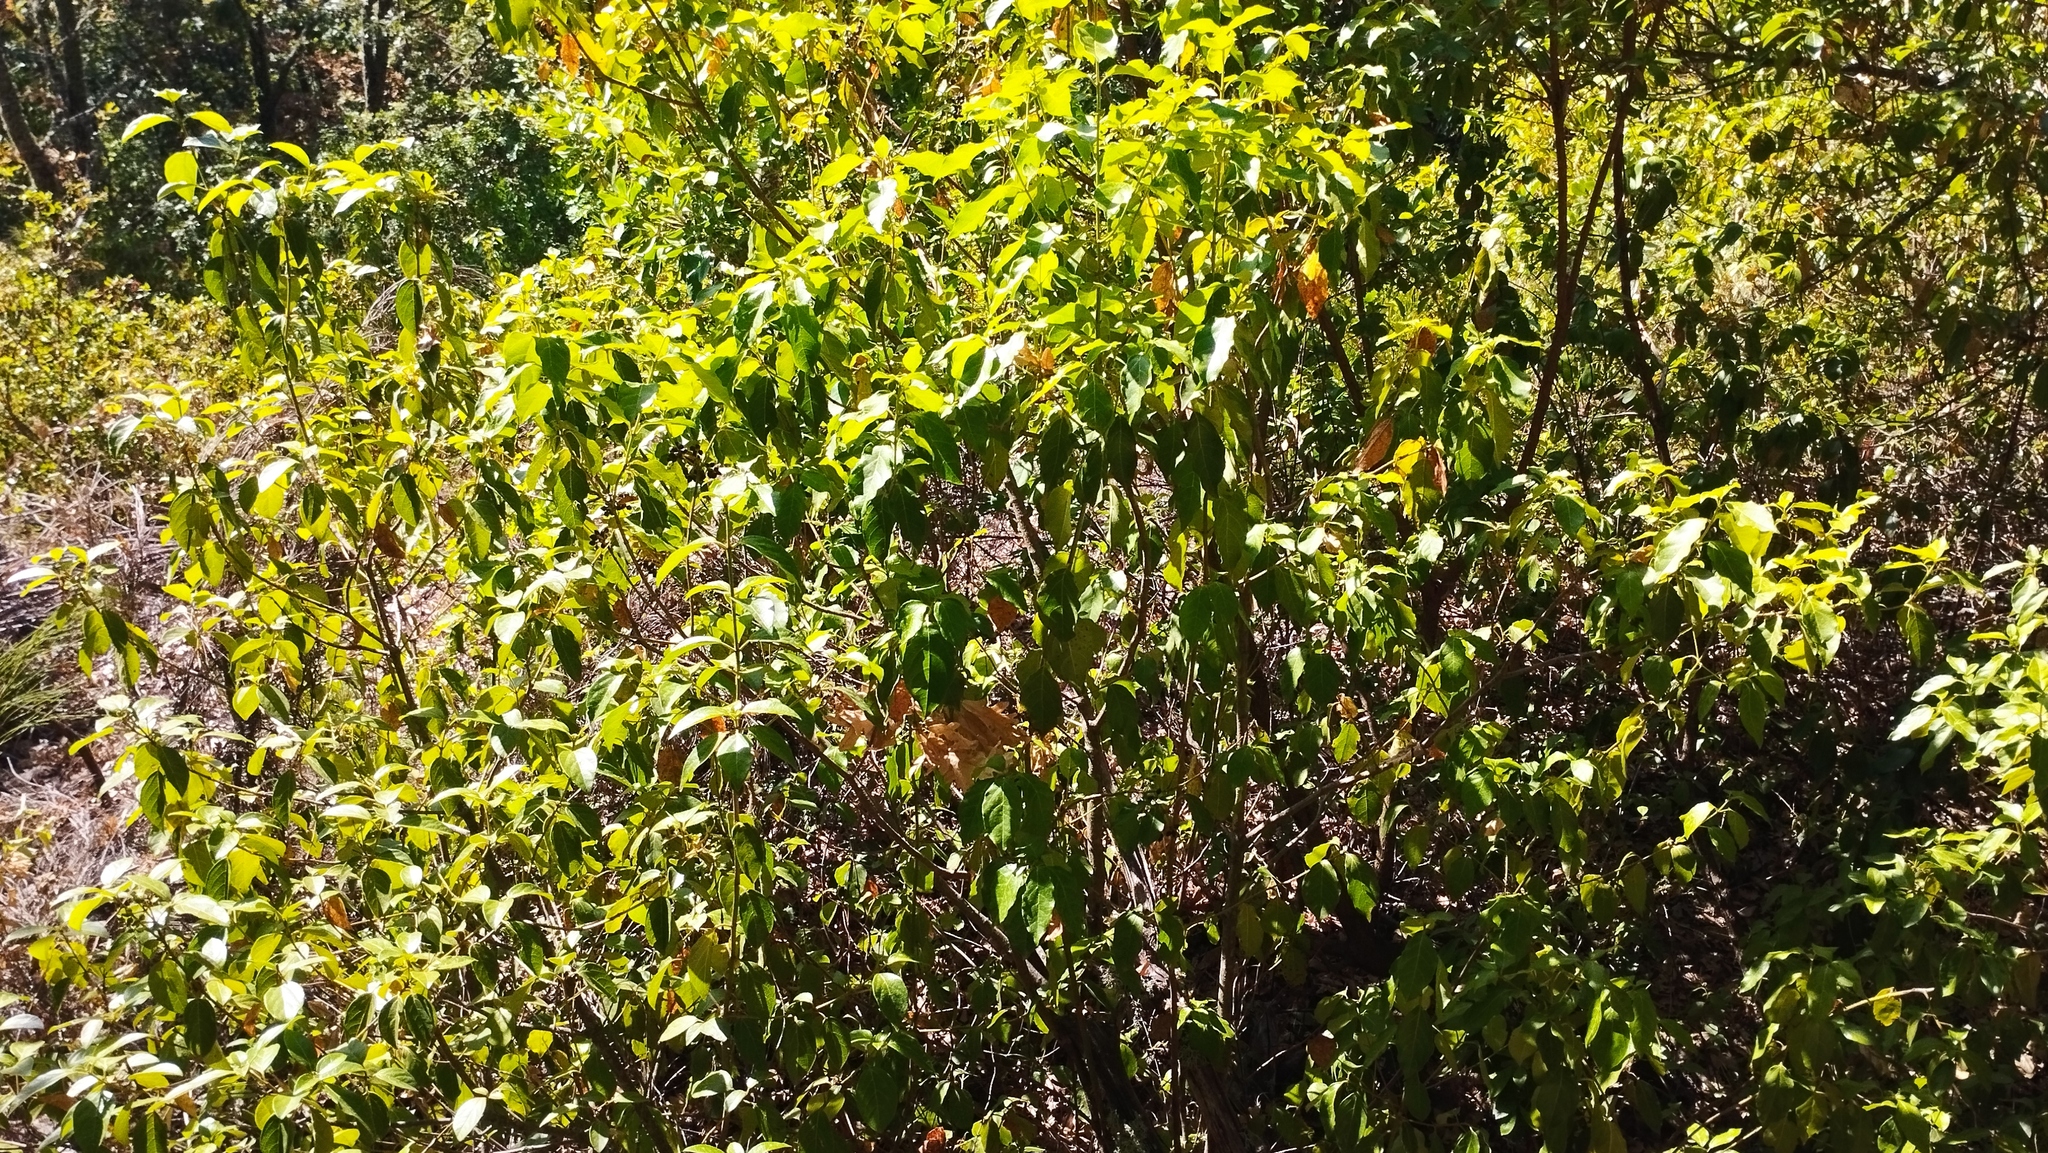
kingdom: Plantae
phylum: Tracheophyta
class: Magnoliopsida
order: Dipsacales
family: Viburnaceae
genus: Viburnum
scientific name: Viburnum tinus
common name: Laurustinus
